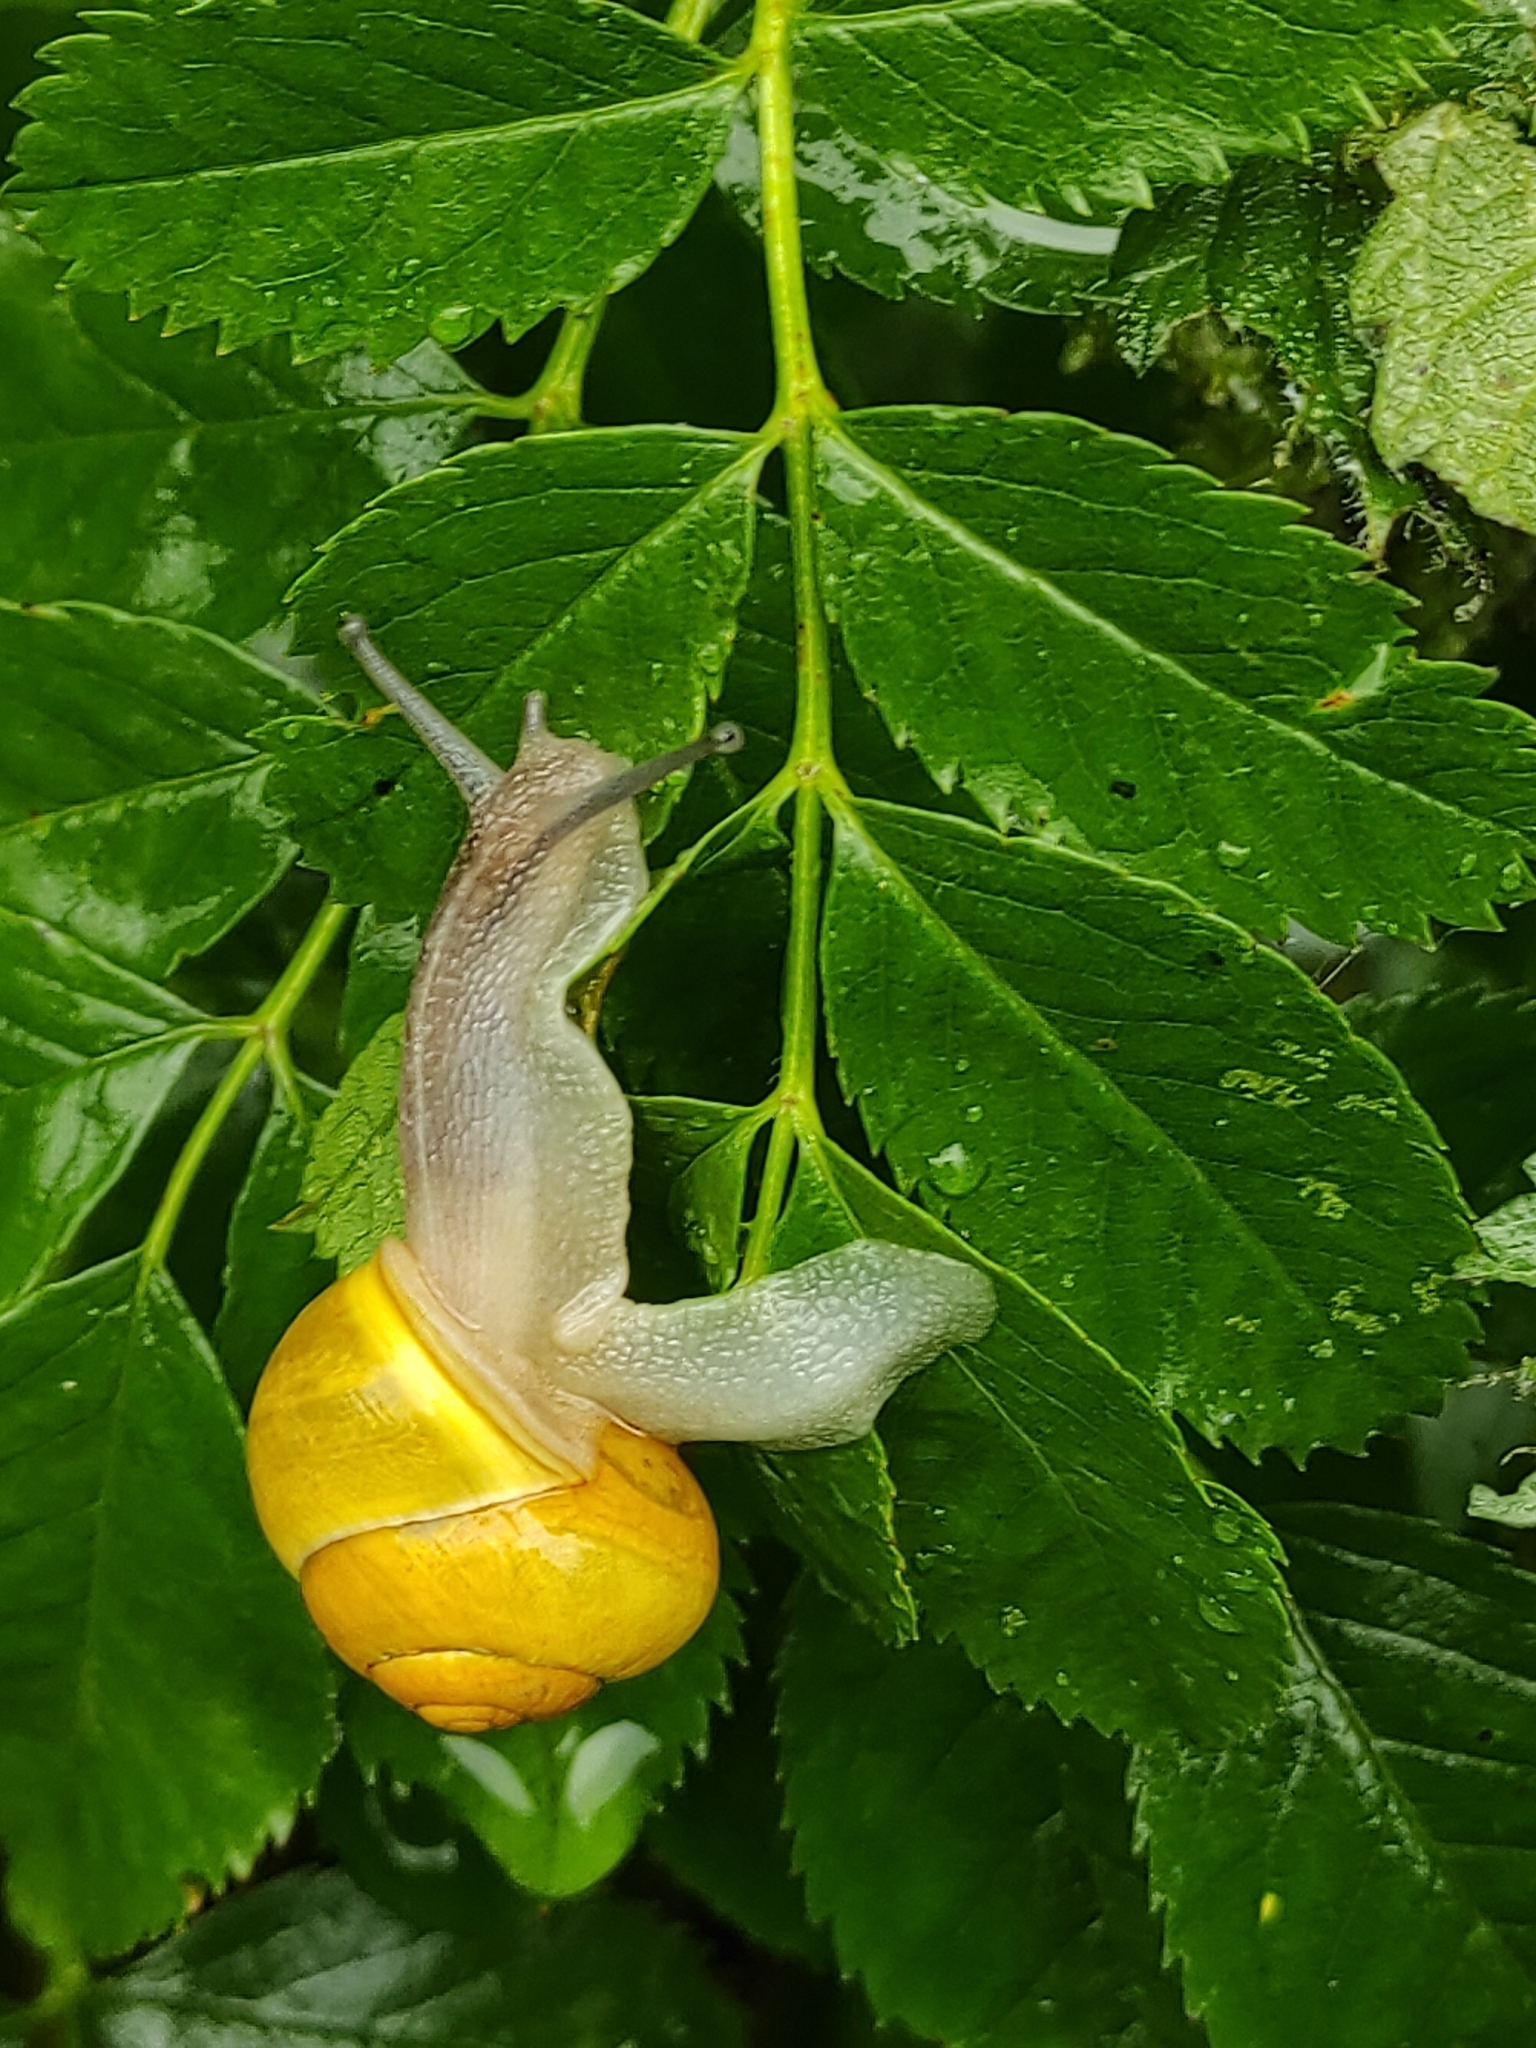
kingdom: Animalia
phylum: Mollusca
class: Gastropoda
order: Stylommatophora
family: Helicidae
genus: Cepaea
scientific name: Cepaea hortensis
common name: White-lip gardensnail
